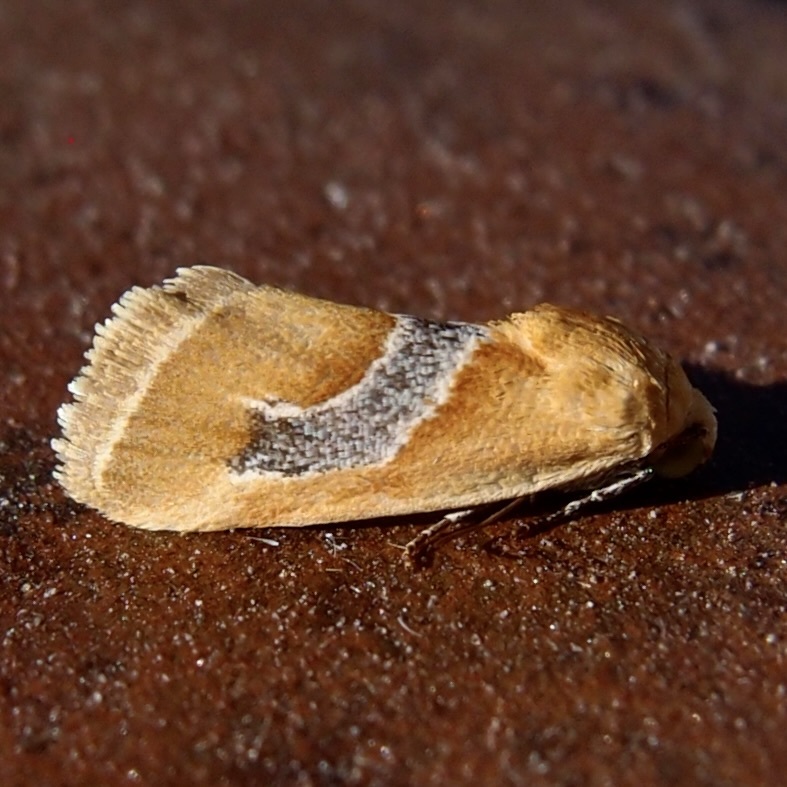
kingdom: Animalia
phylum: Arthropoda
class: Insecta
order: Lepidoptera
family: Noctuidae
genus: Ponometia
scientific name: Ponometia venustula
